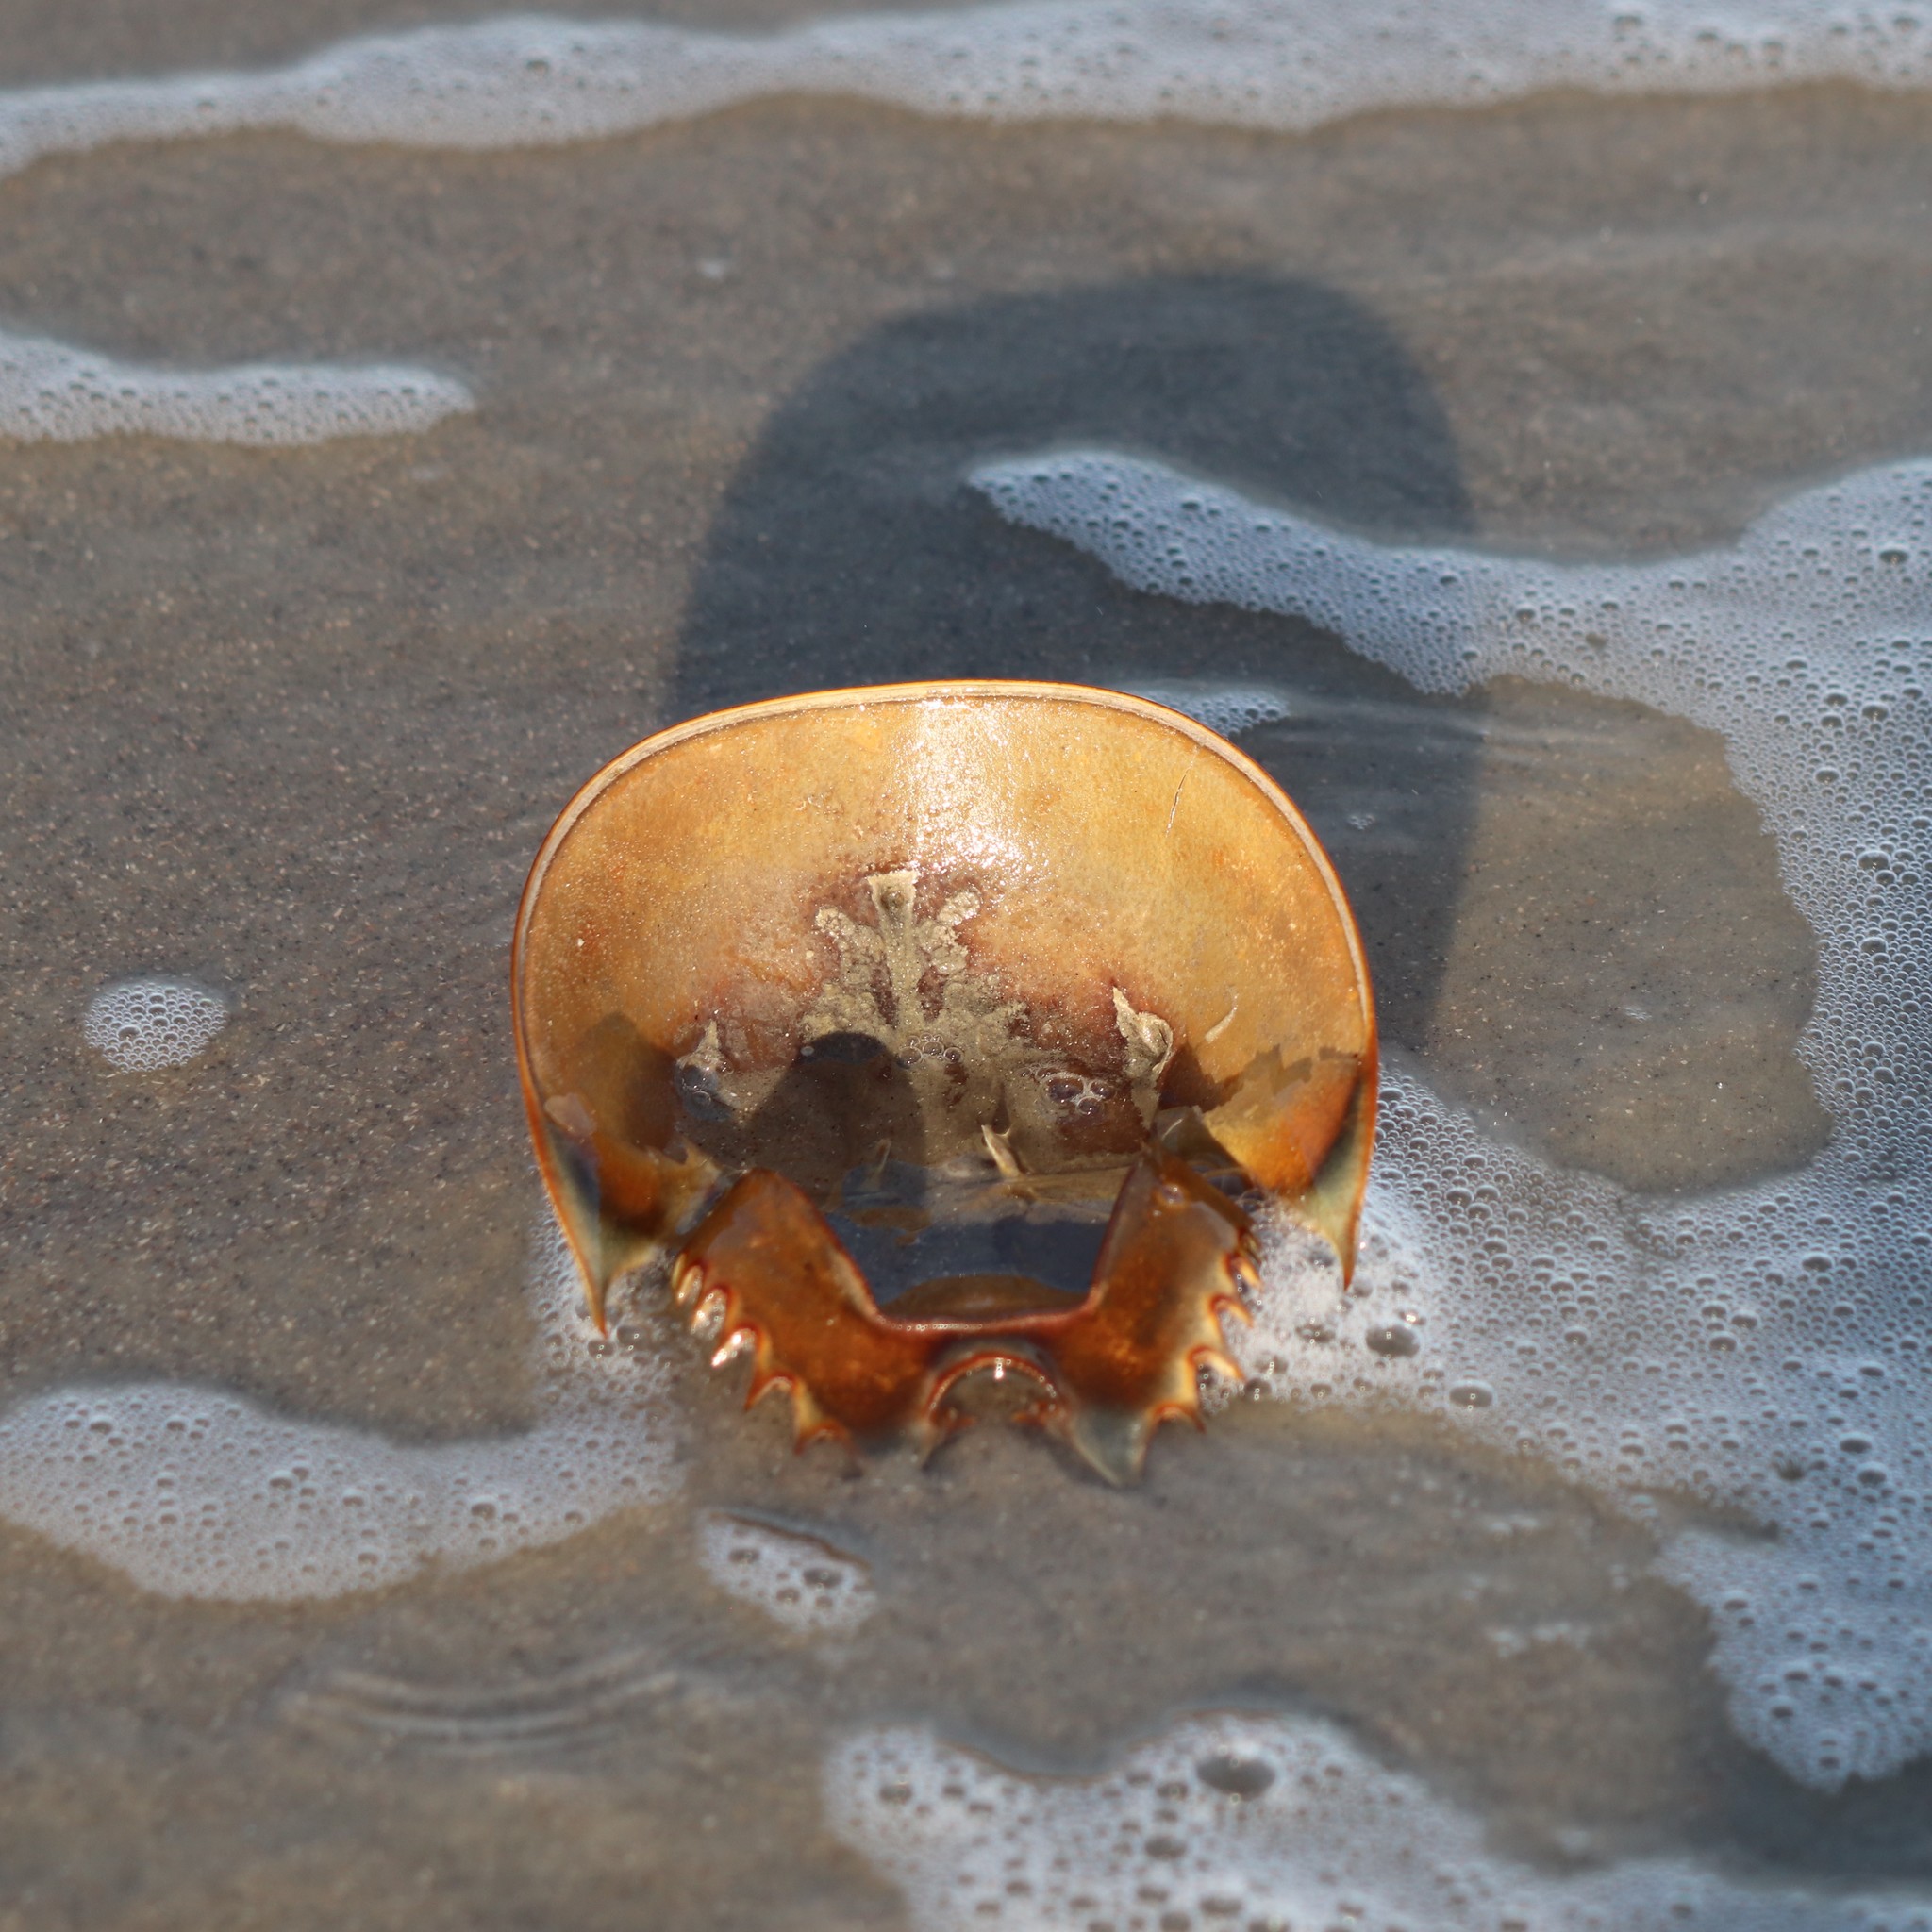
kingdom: Animalia
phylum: Arthropoda
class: Merostomata
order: Xiphosurida
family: Limulidae
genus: Limulus
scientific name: Limulus polyphemus
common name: Horseshoe crab
